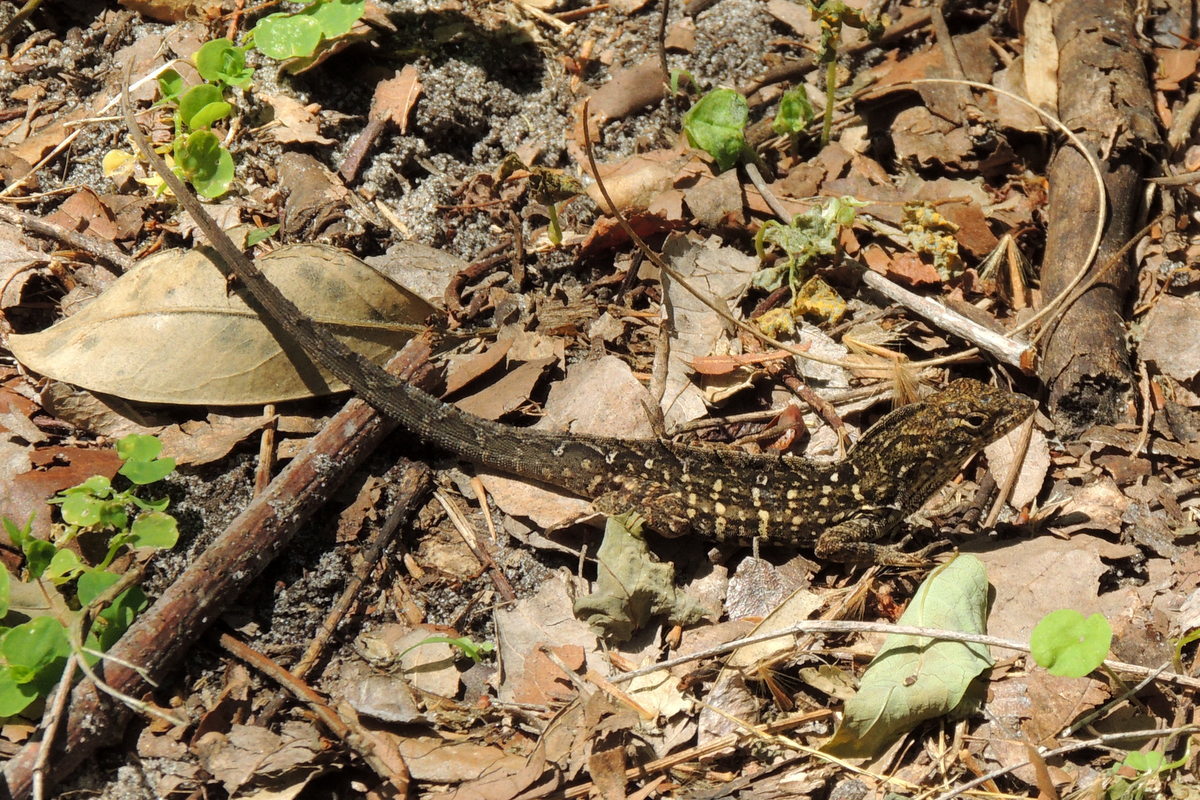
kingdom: Animalia
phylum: Chordata
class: Squamata
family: Dactyloidae
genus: Anolis
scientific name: Anolis sagrei
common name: Brown anole
